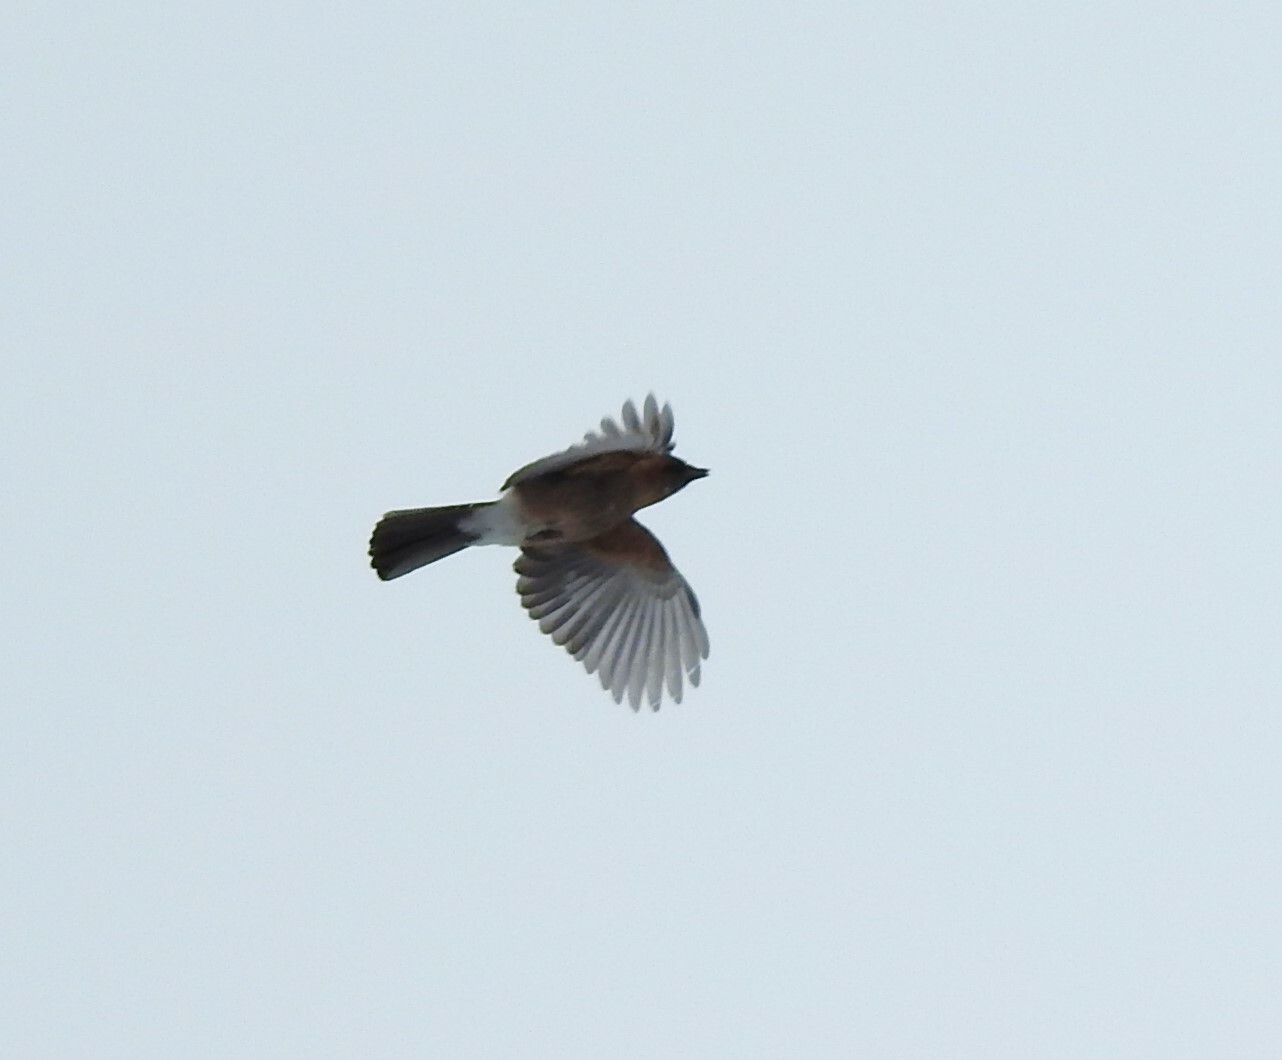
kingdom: Animalia
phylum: Chordata
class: Aves
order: Passeriformes
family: Corvidae
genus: Garrulus
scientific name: Garrulus glandarius
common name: Eurasian jay
